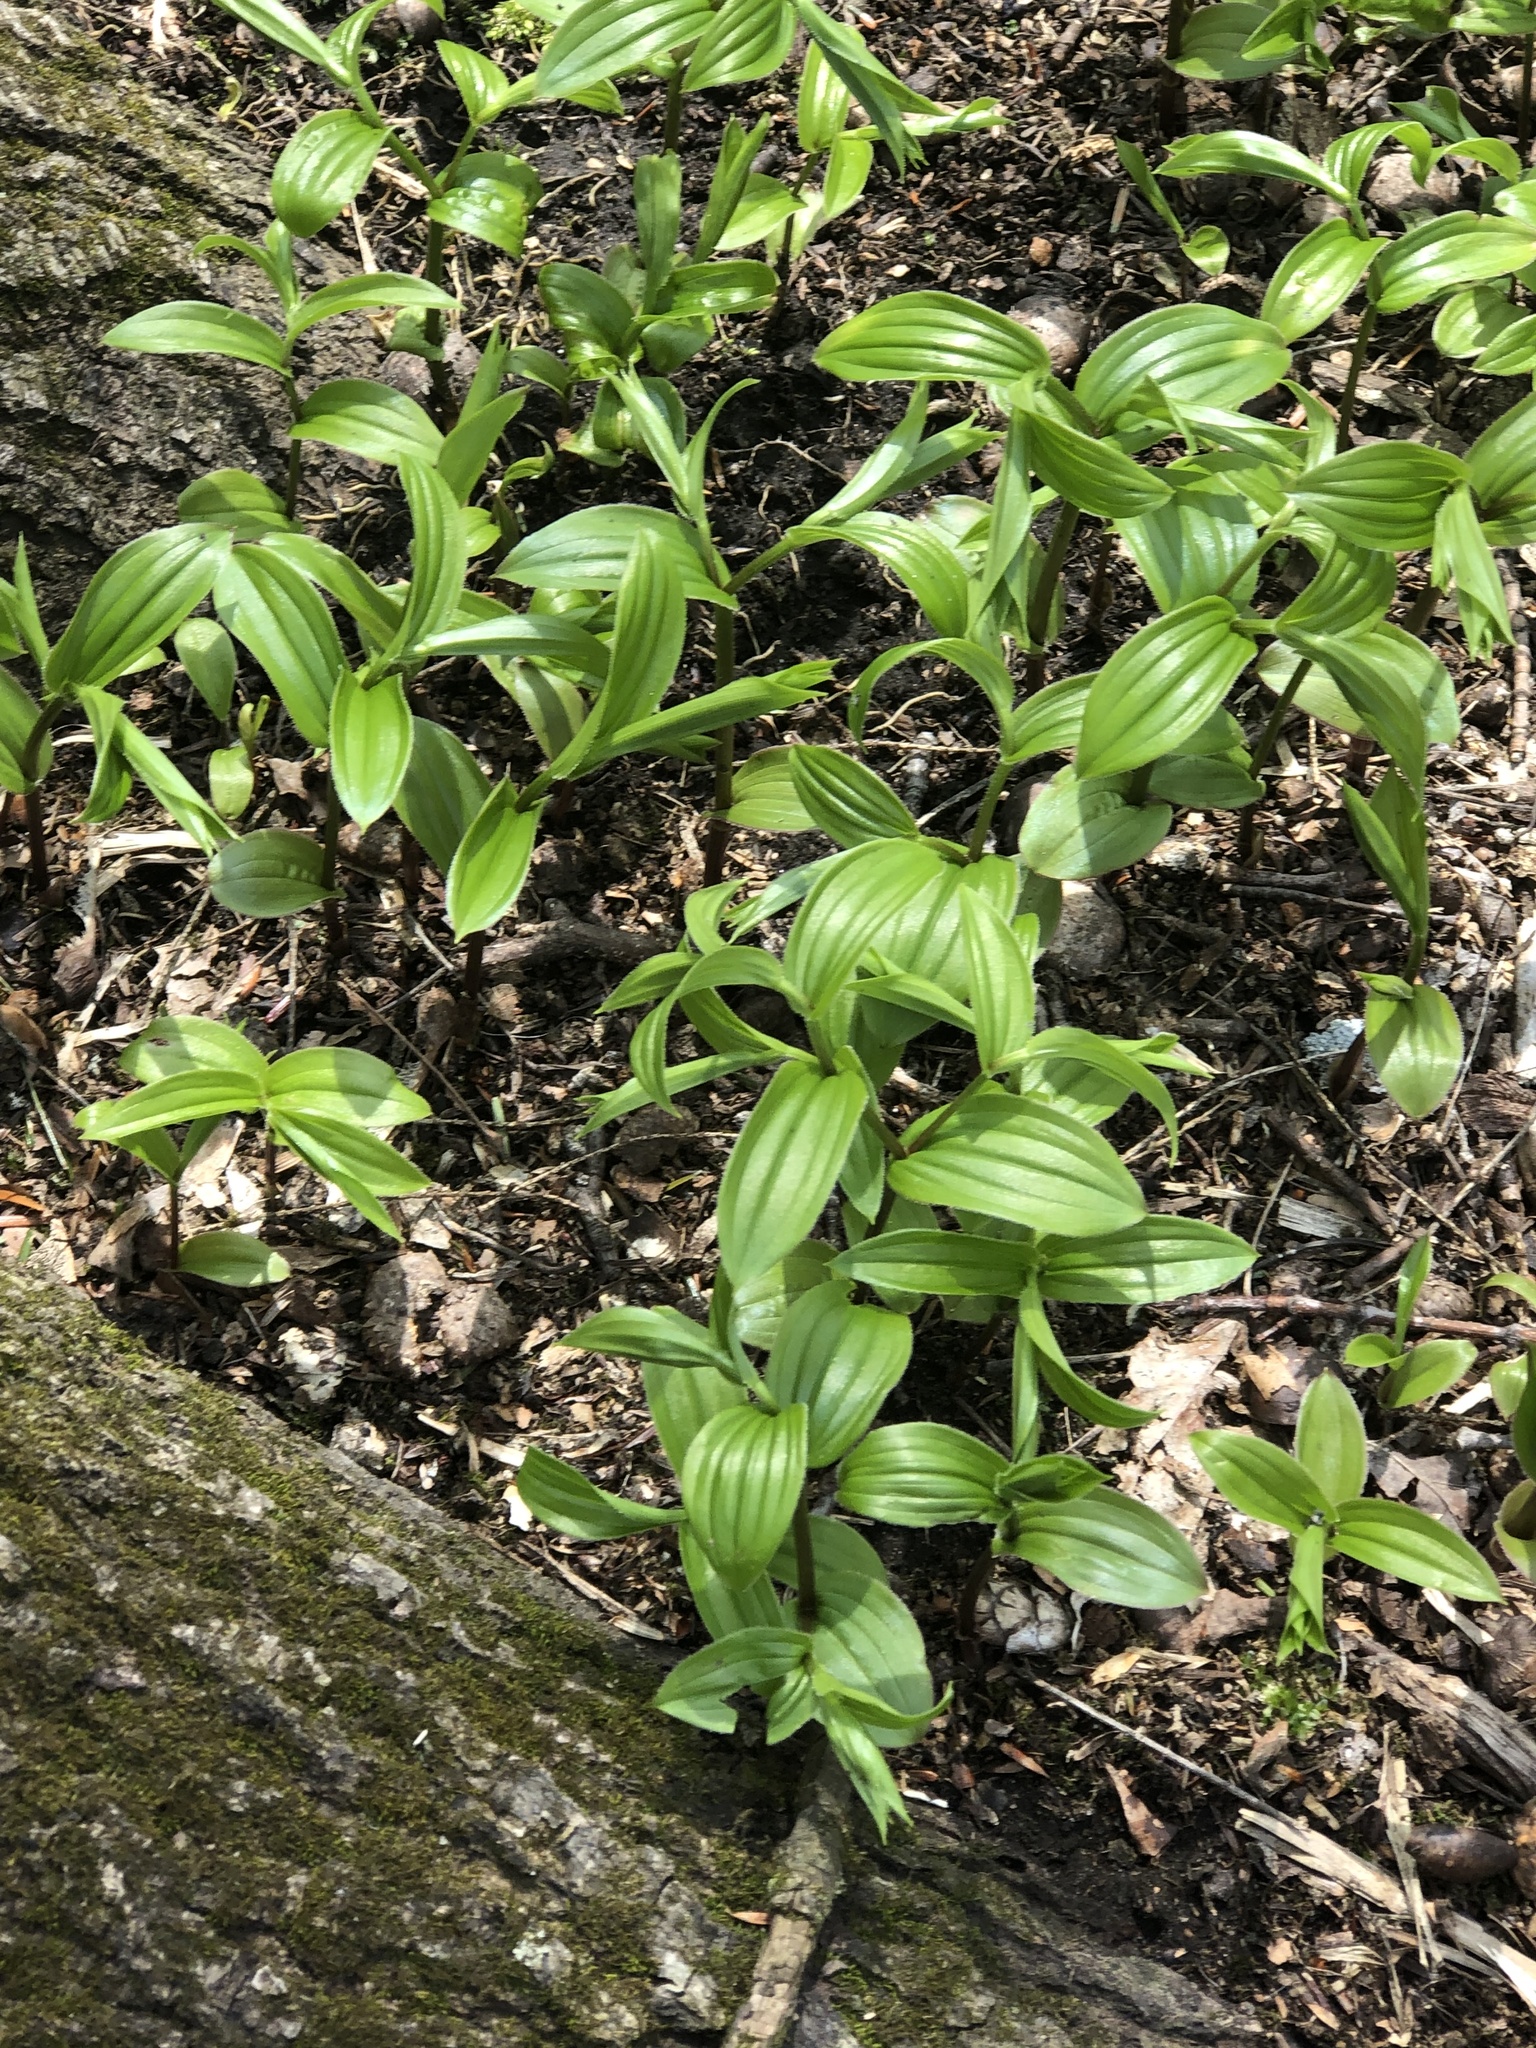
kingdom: Plantae
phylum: Tracheophyta
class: Liliopsida
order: Liliales
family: Liliaceae
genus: Streptopus
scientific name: Streptopus lanceolatus
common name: Rose mandarin
